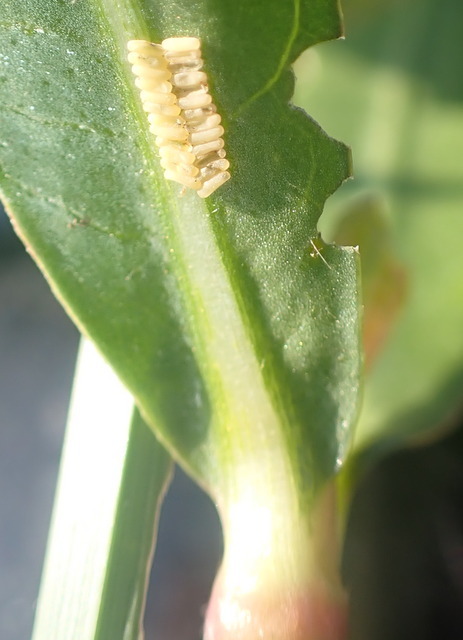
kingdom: Animalia
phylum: Arthropoda
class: Insecta
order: Coleoptera
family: Chrysomelidae
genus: Agasicles
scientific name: Agasicles hygrophila
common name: Alligatorweed flea beetle
